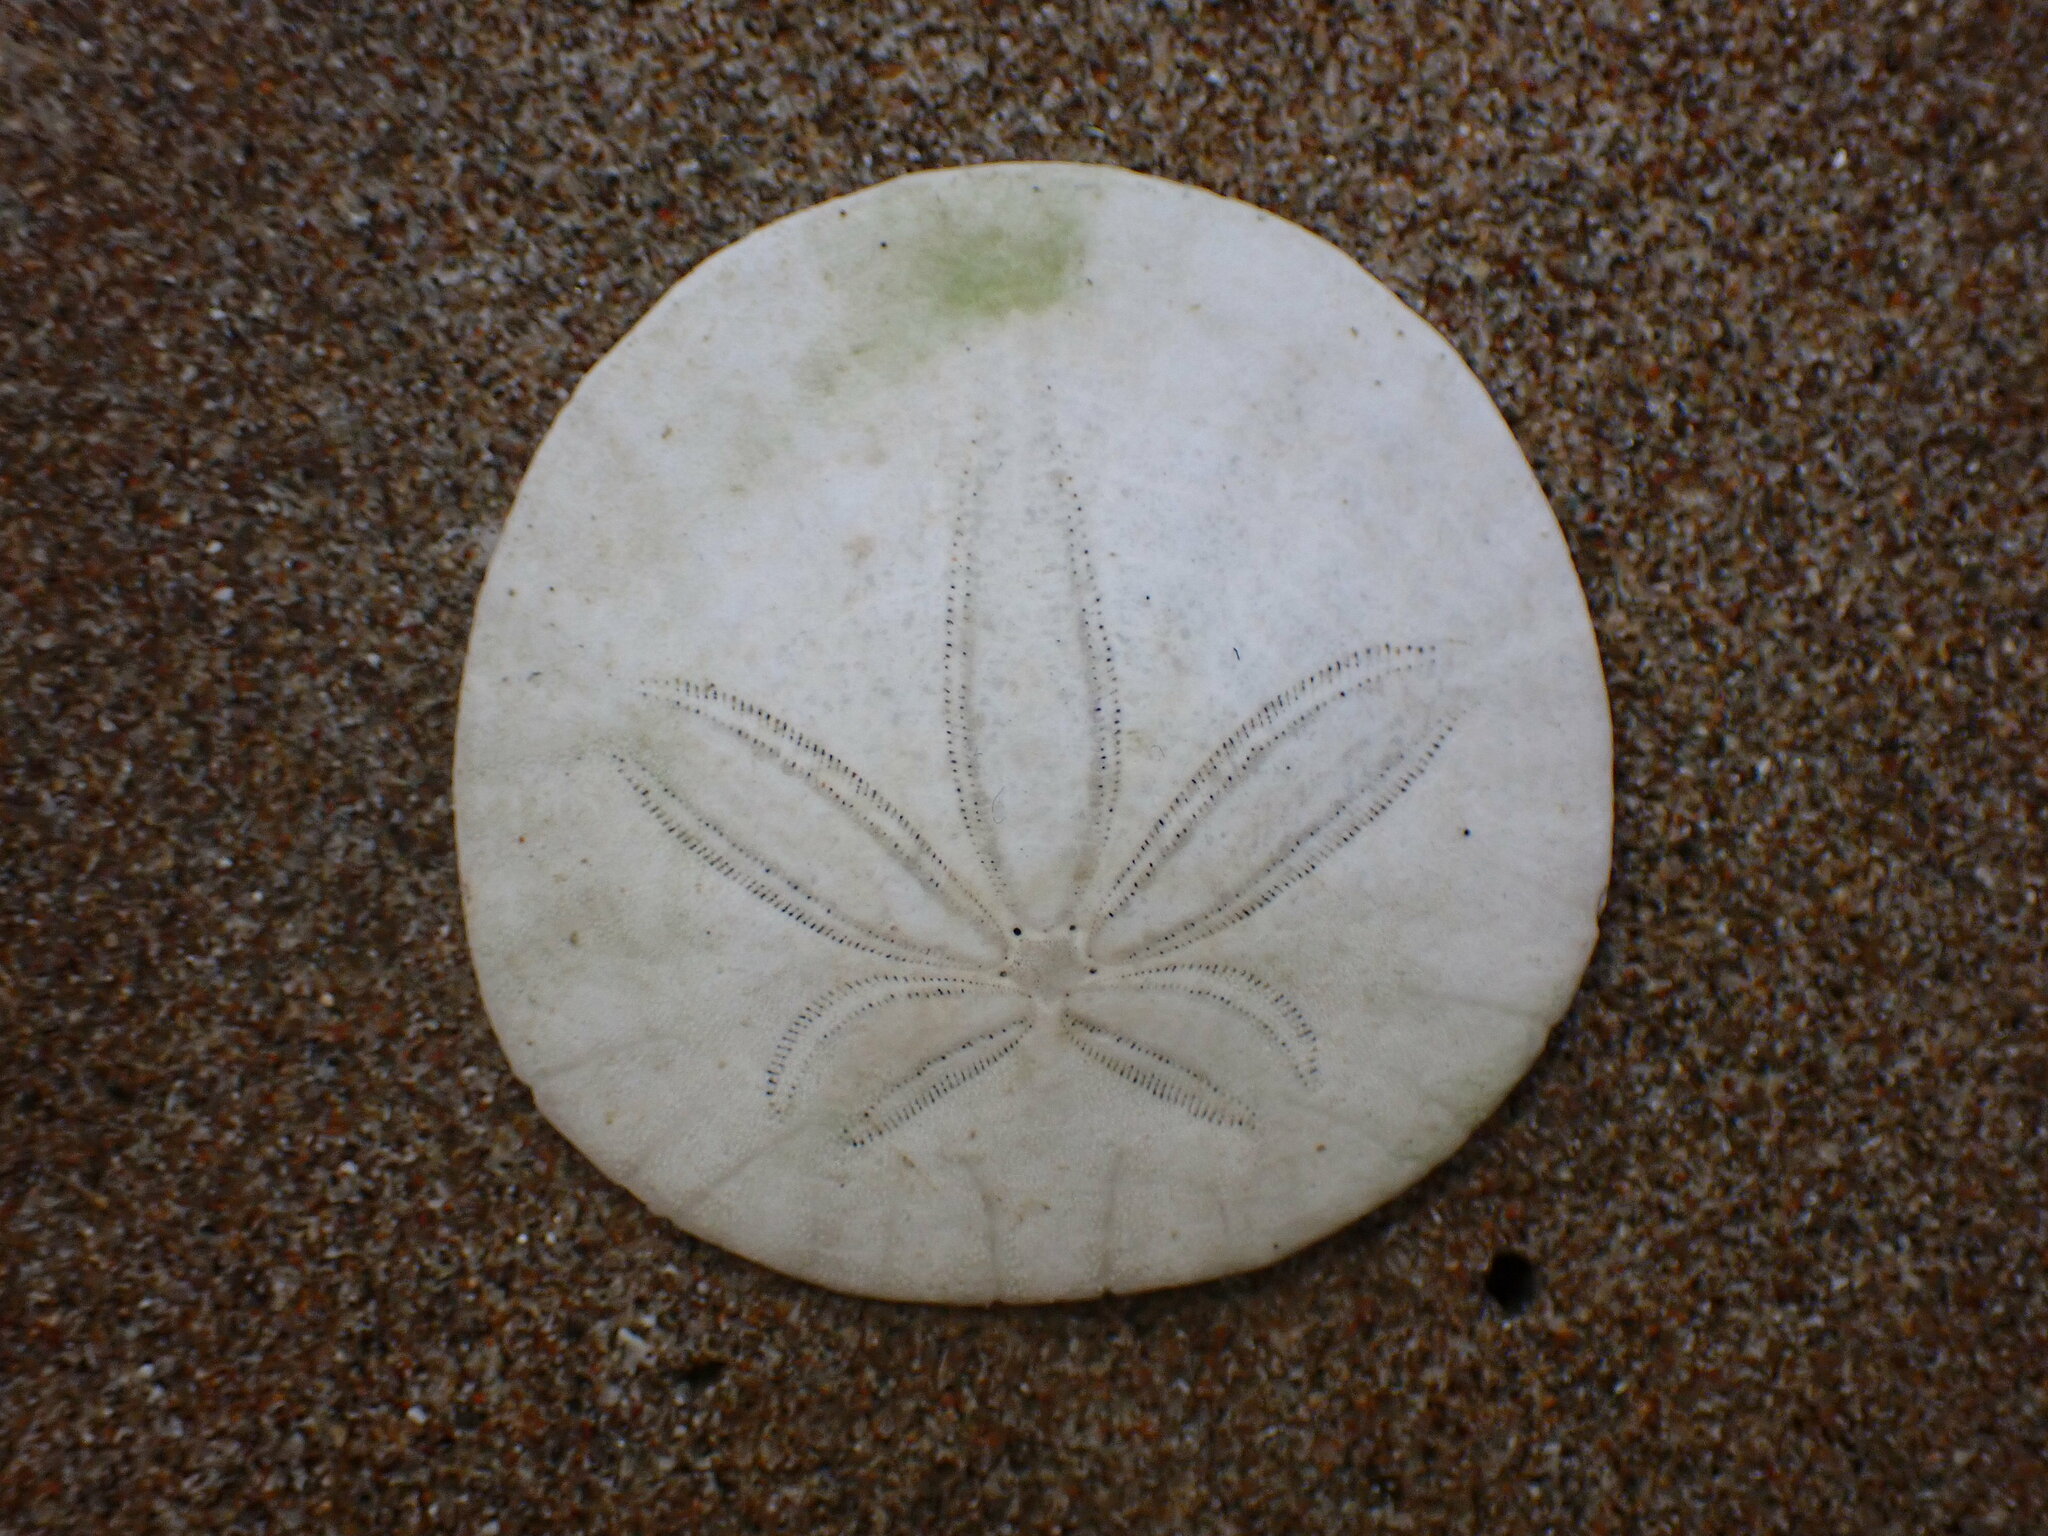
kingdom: Animalia
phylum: Echinodermata
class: Echinoidea
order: Echinolampadacea
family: Dendrasteridae
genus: Dendraster
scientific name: Dendraster excentricus
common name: Eccentric sand dollar sea urchin
